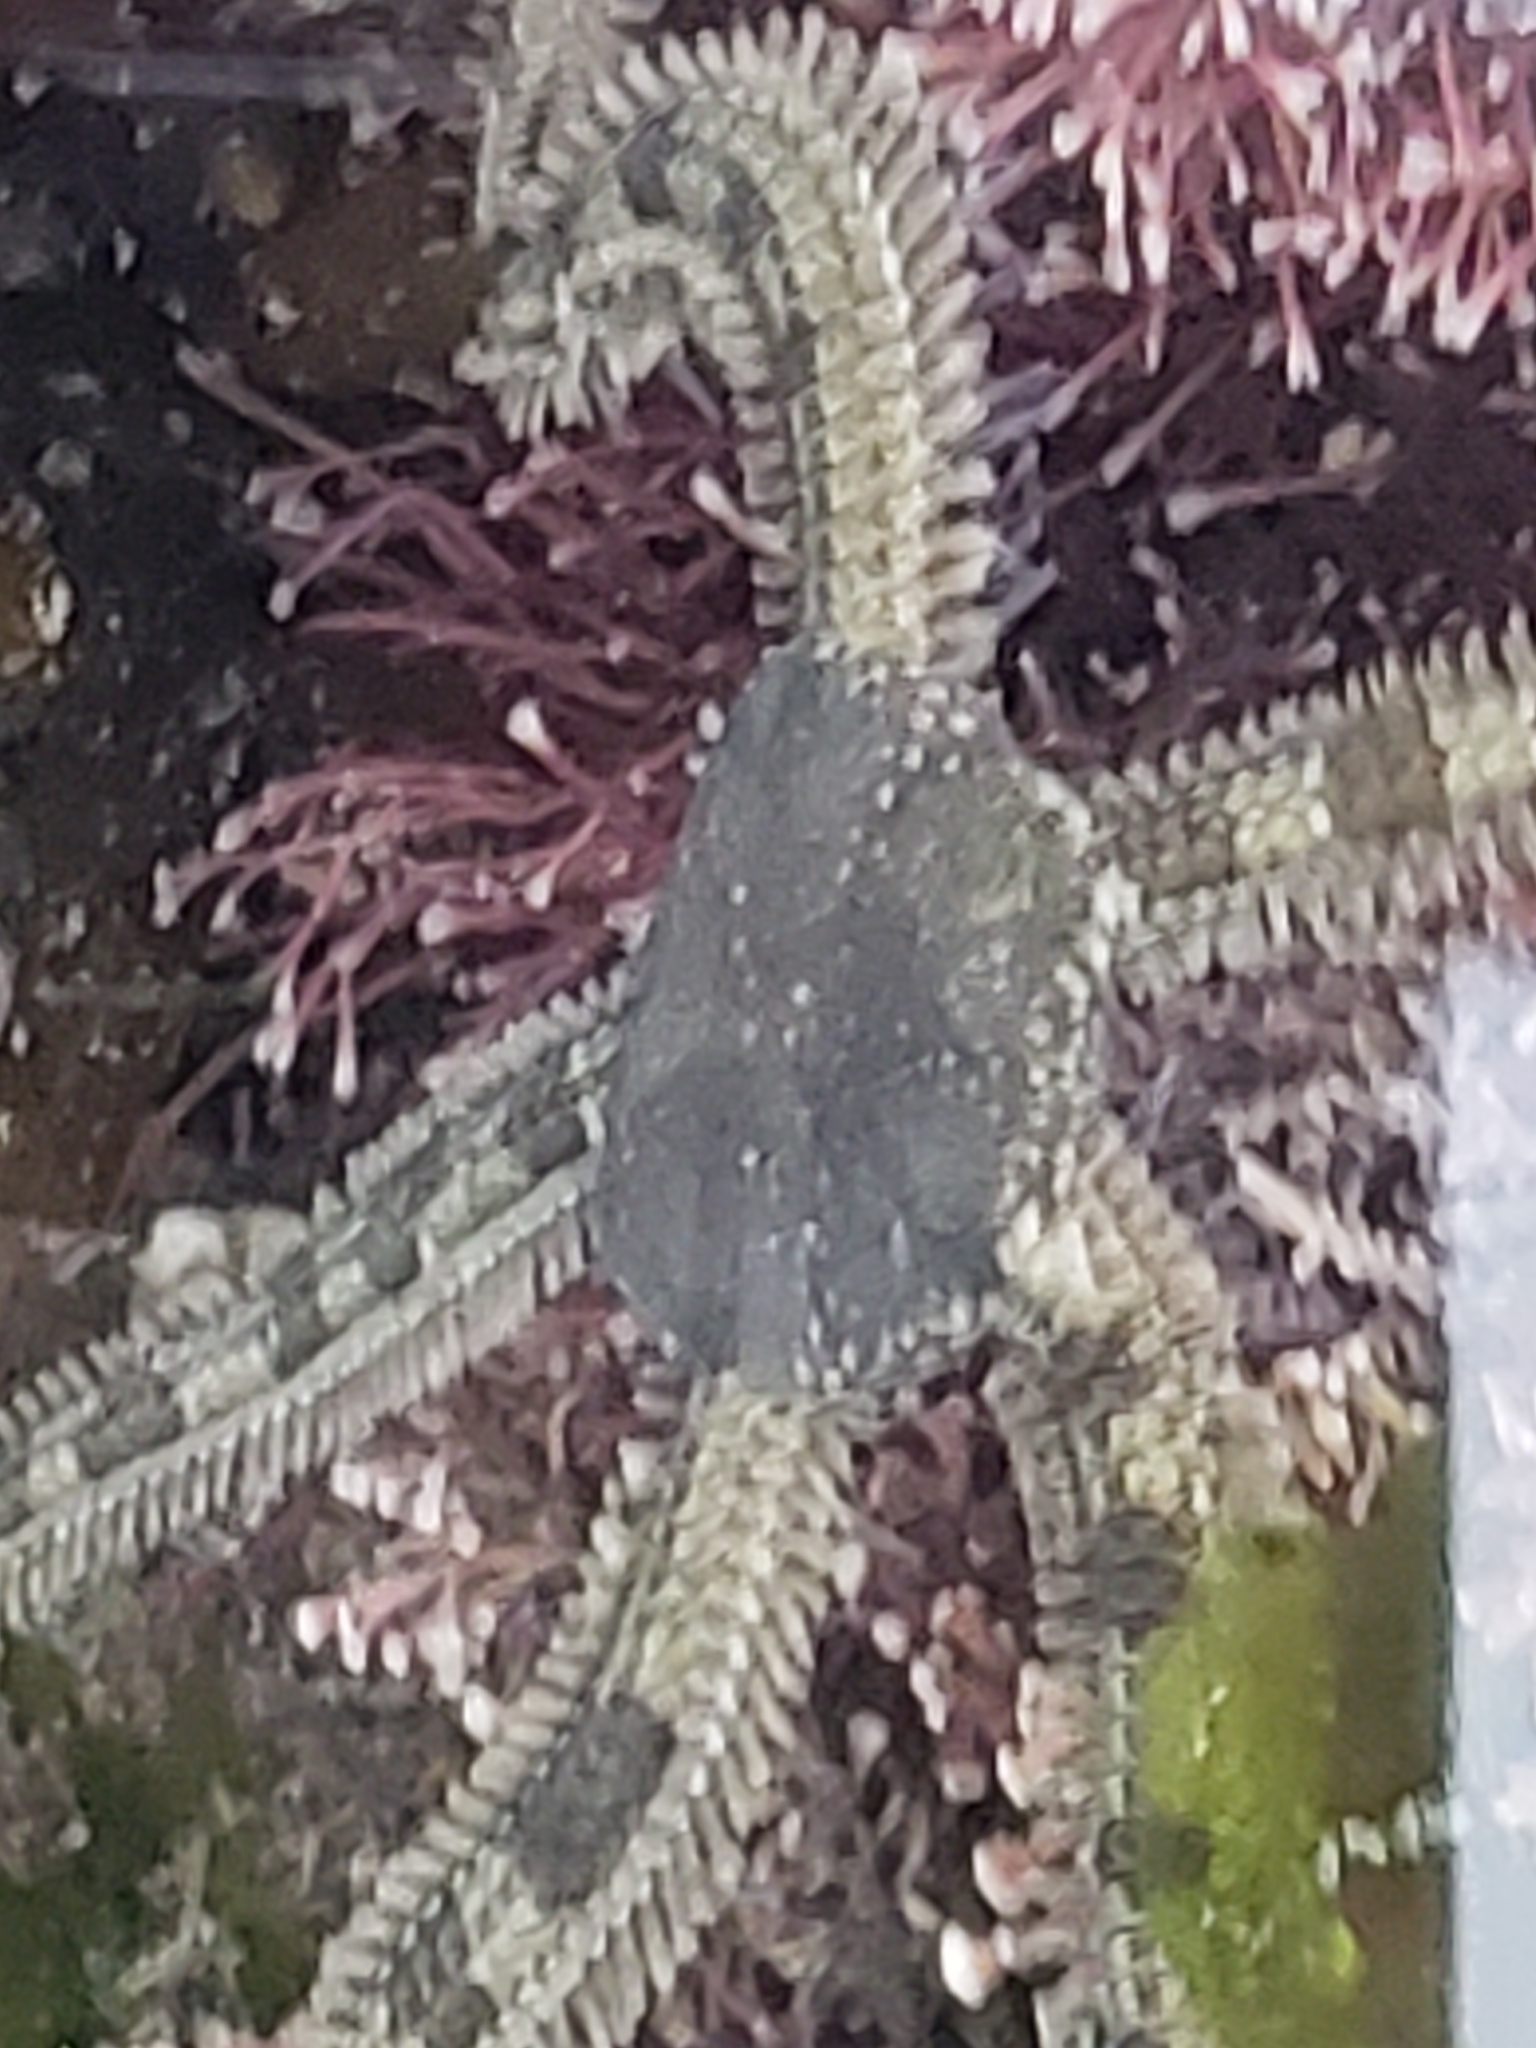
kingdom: Animalia
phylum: Echinodermata
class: Ophiuroidea
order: Amphilepidida
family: Ophionereididae
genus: Ophionereis
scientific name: Ophionereis annulata
